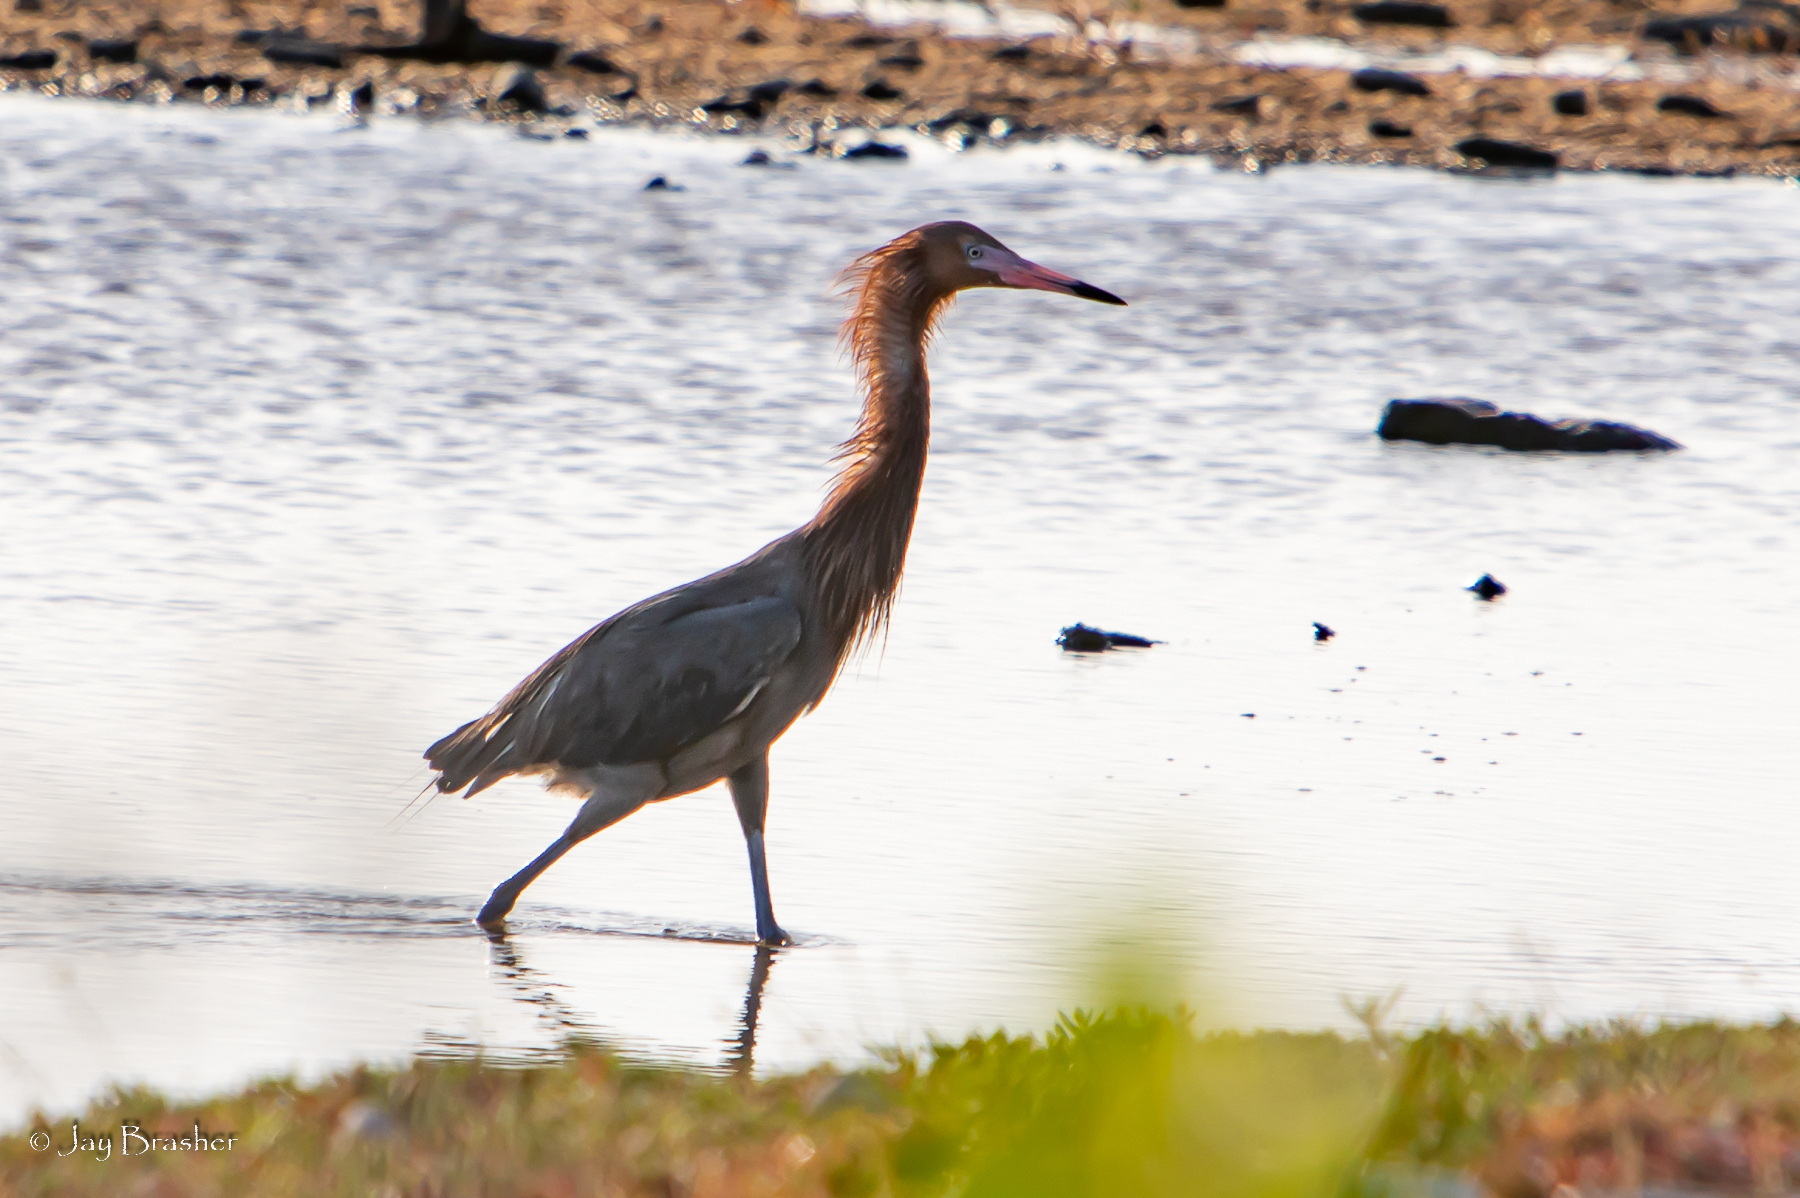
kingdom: Animalia
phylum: Chordata
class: Aves
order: Pelecaniformes
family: Ardeidae
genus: Egretta
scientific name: Egretta rufescens
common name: Reddish egret
